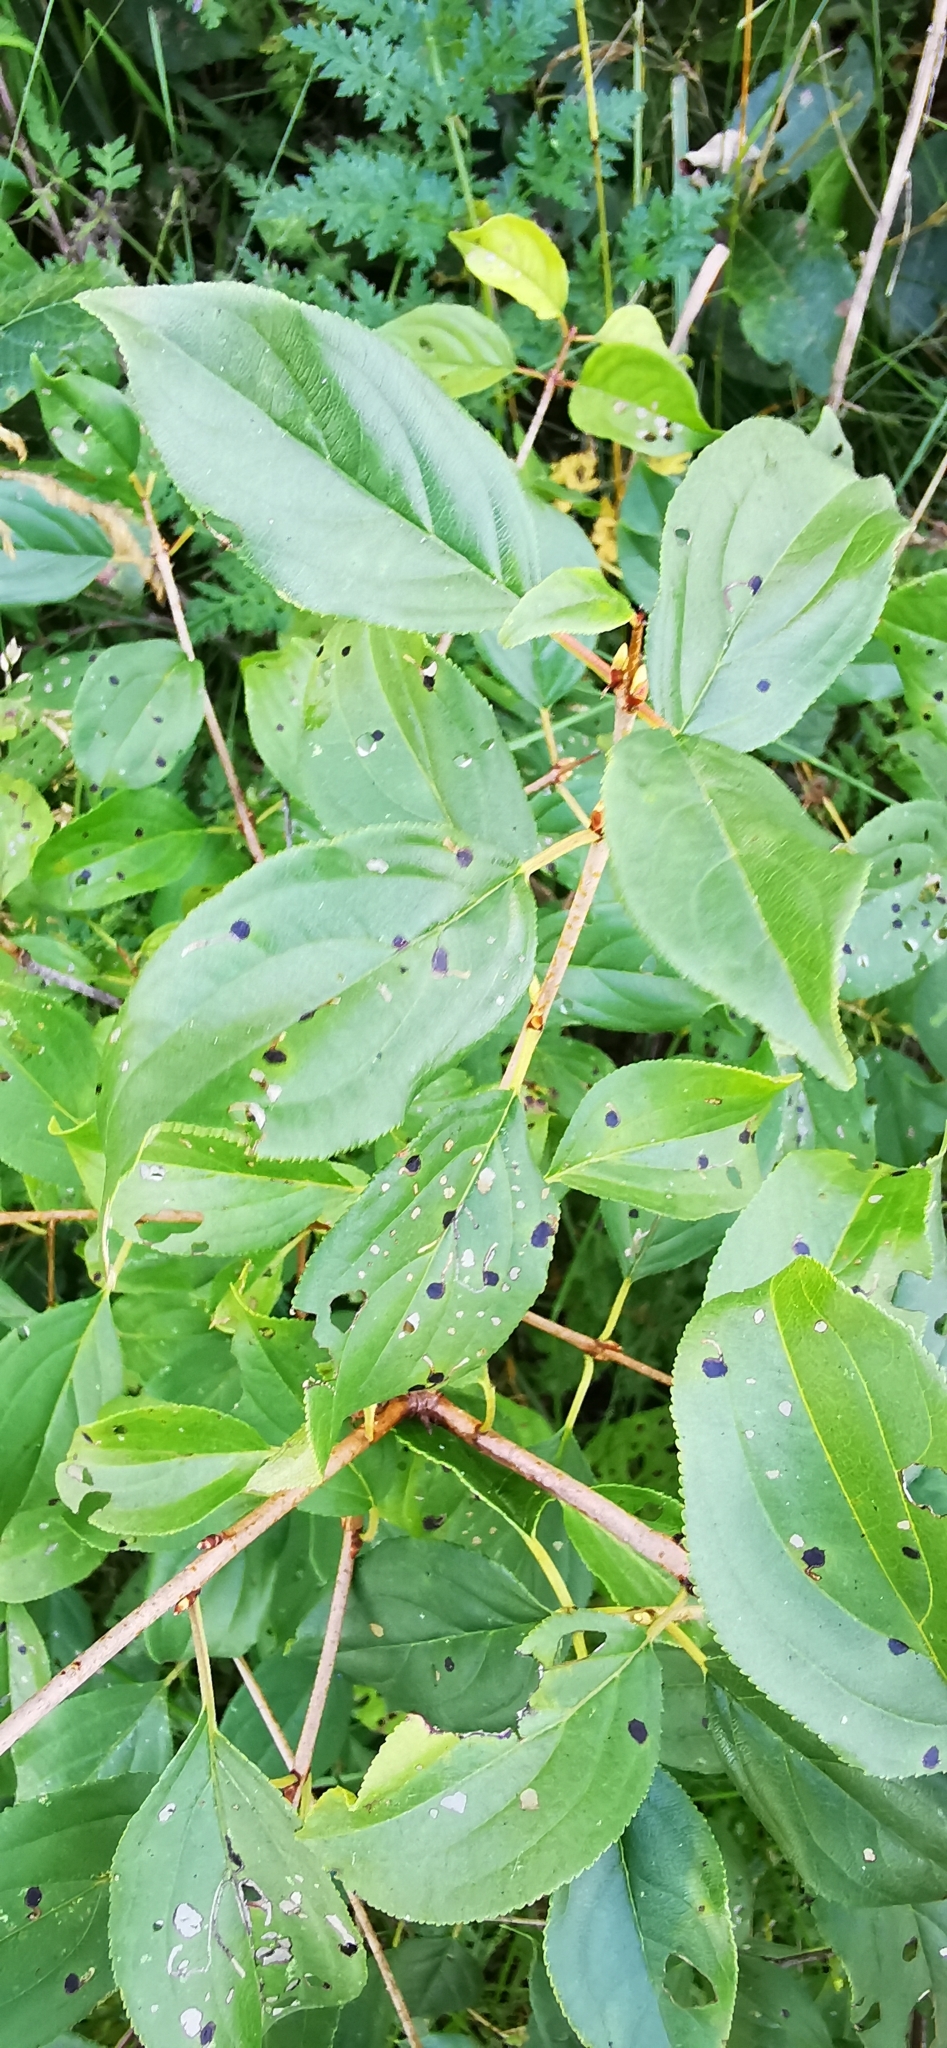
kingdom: Plantae
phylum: Tracheophyta
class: Magnoliopsida
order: Rosales
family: Rhamnaceae
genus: Rhamnus
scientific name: Rhamnus cathartica
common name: Common buckthorn
